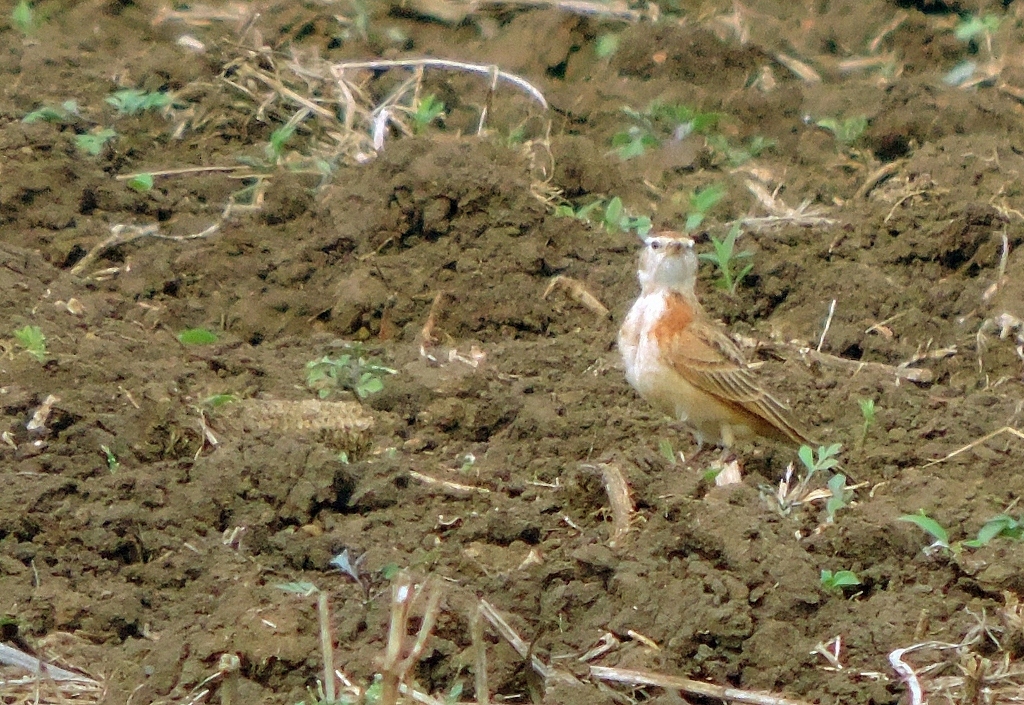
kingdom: Animalia
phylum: Chordata
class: Aves
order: Passeriformes
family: Alaudidae
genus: Calandrella
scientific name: Calandrella cinerea
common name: Red-capped lark
